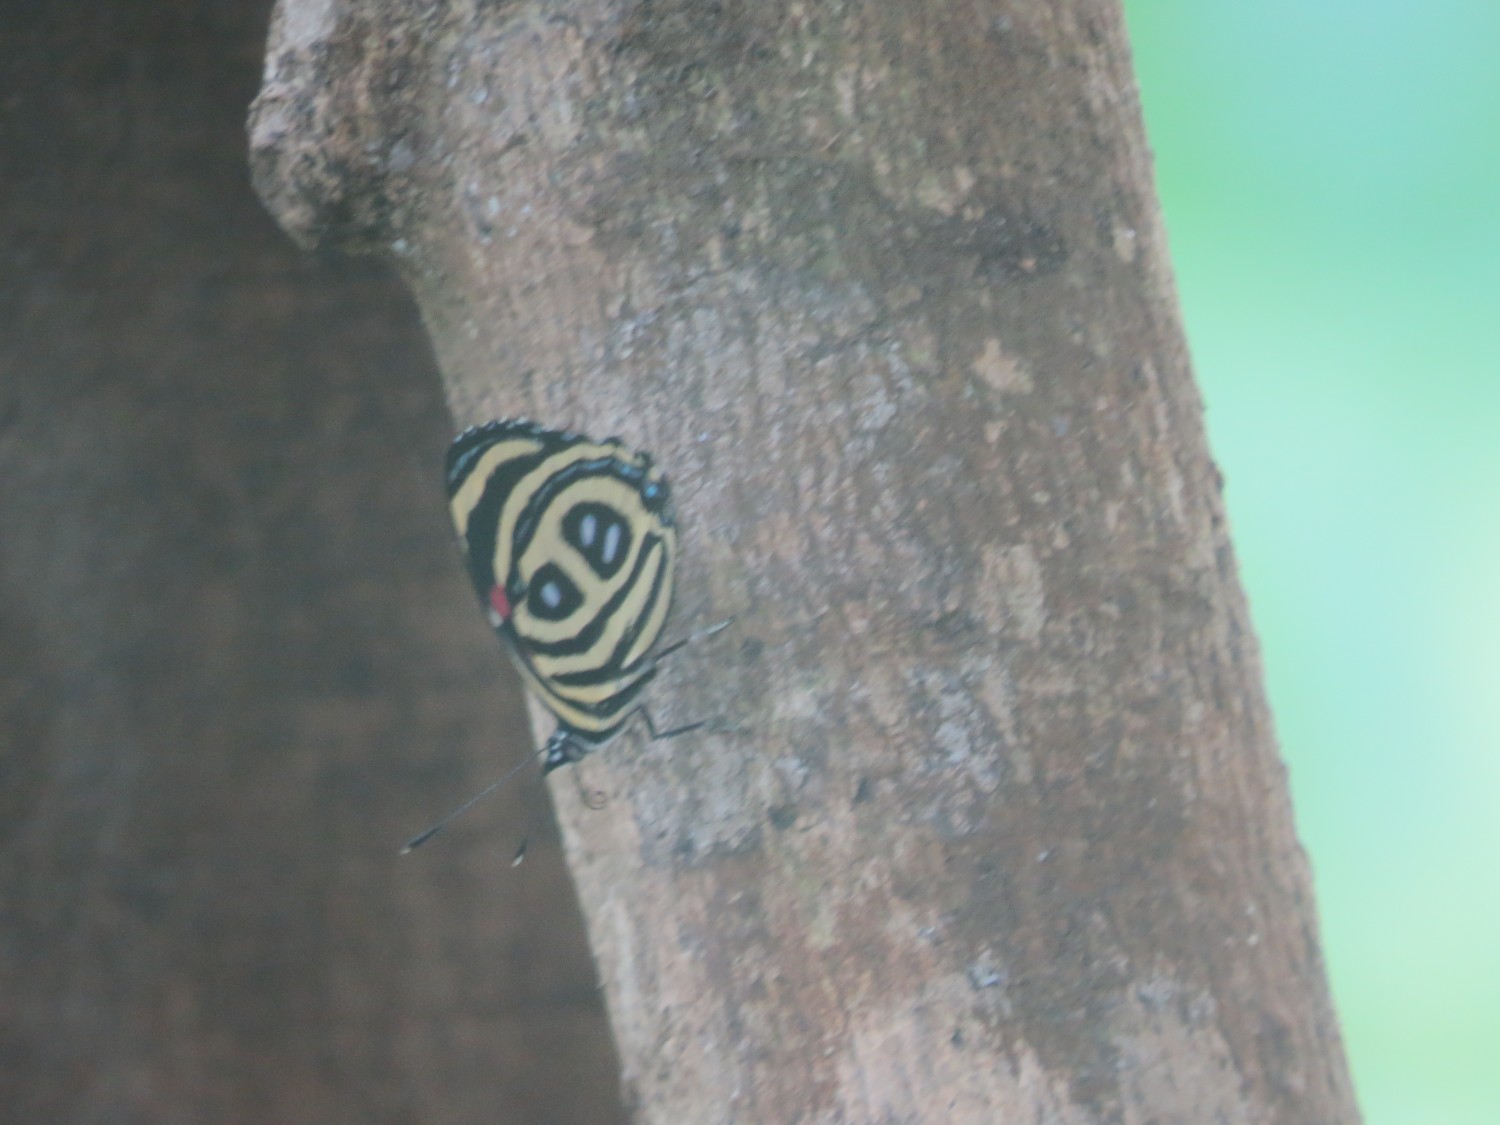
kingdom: Animalia
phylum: Arthropoda
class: Insecta
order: Lepidoptera
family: Nymphalidae
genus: Catagramma
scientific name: Catagramma pyracmon
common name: Google-eyed eighty-eight
